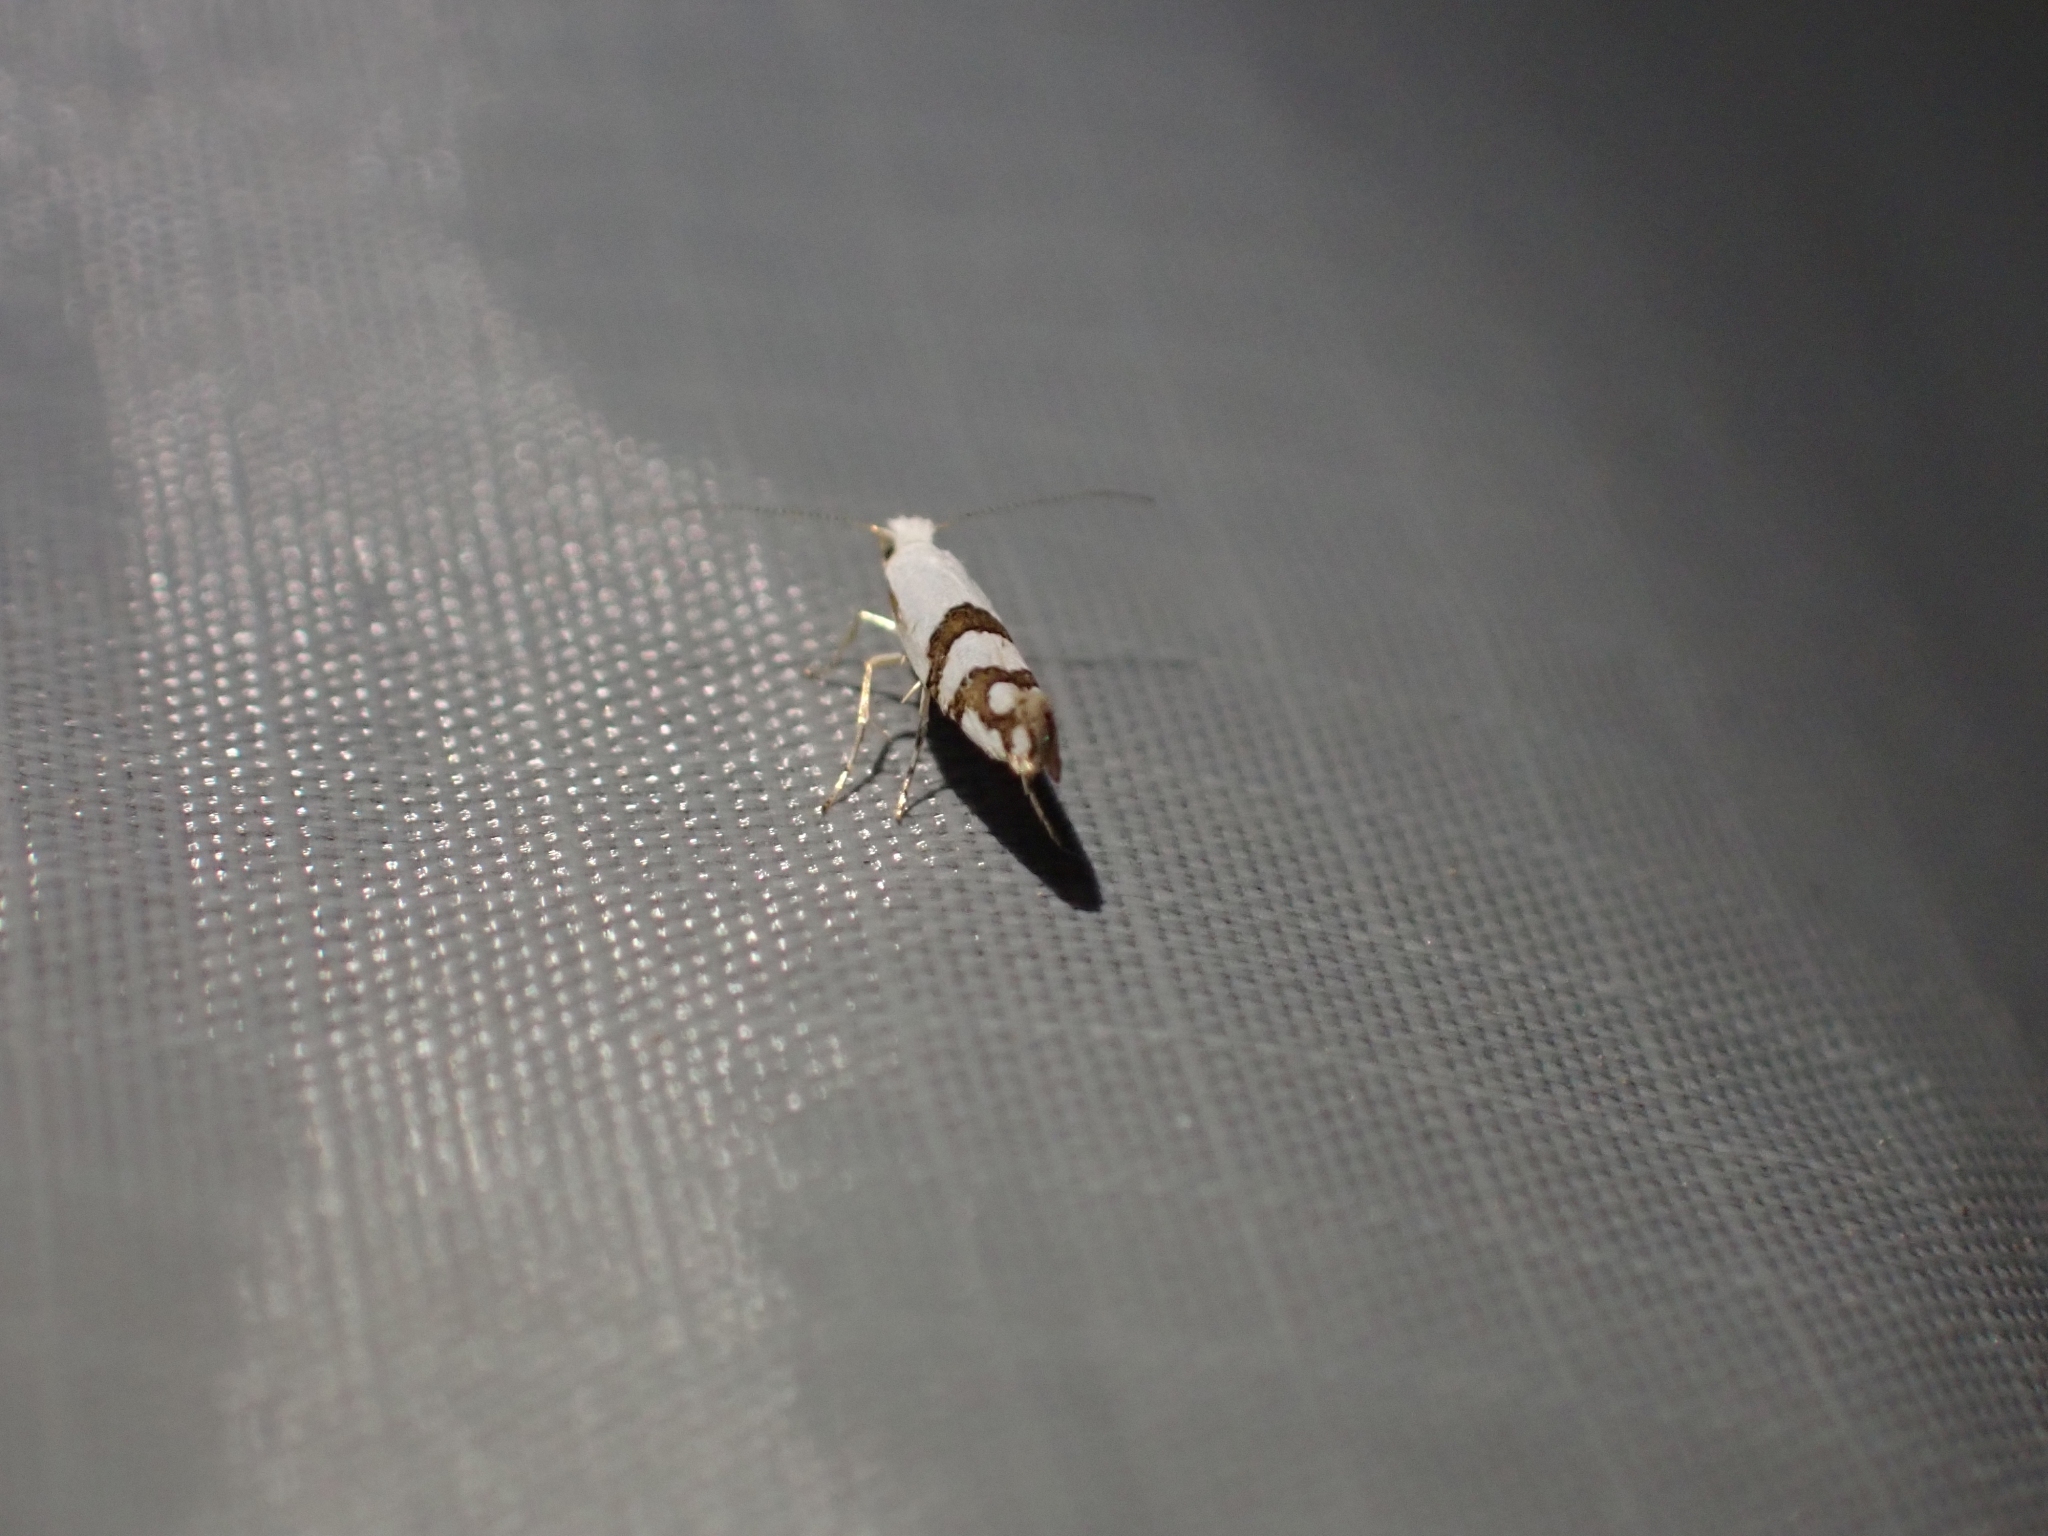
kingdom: Animalia
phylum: Arthropoda
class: Insecta
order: Lepidoptera
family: Argyresthiidae
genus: Argyresthia
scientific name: Argyresthia oreasella
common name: Cherry shoot borer moth
